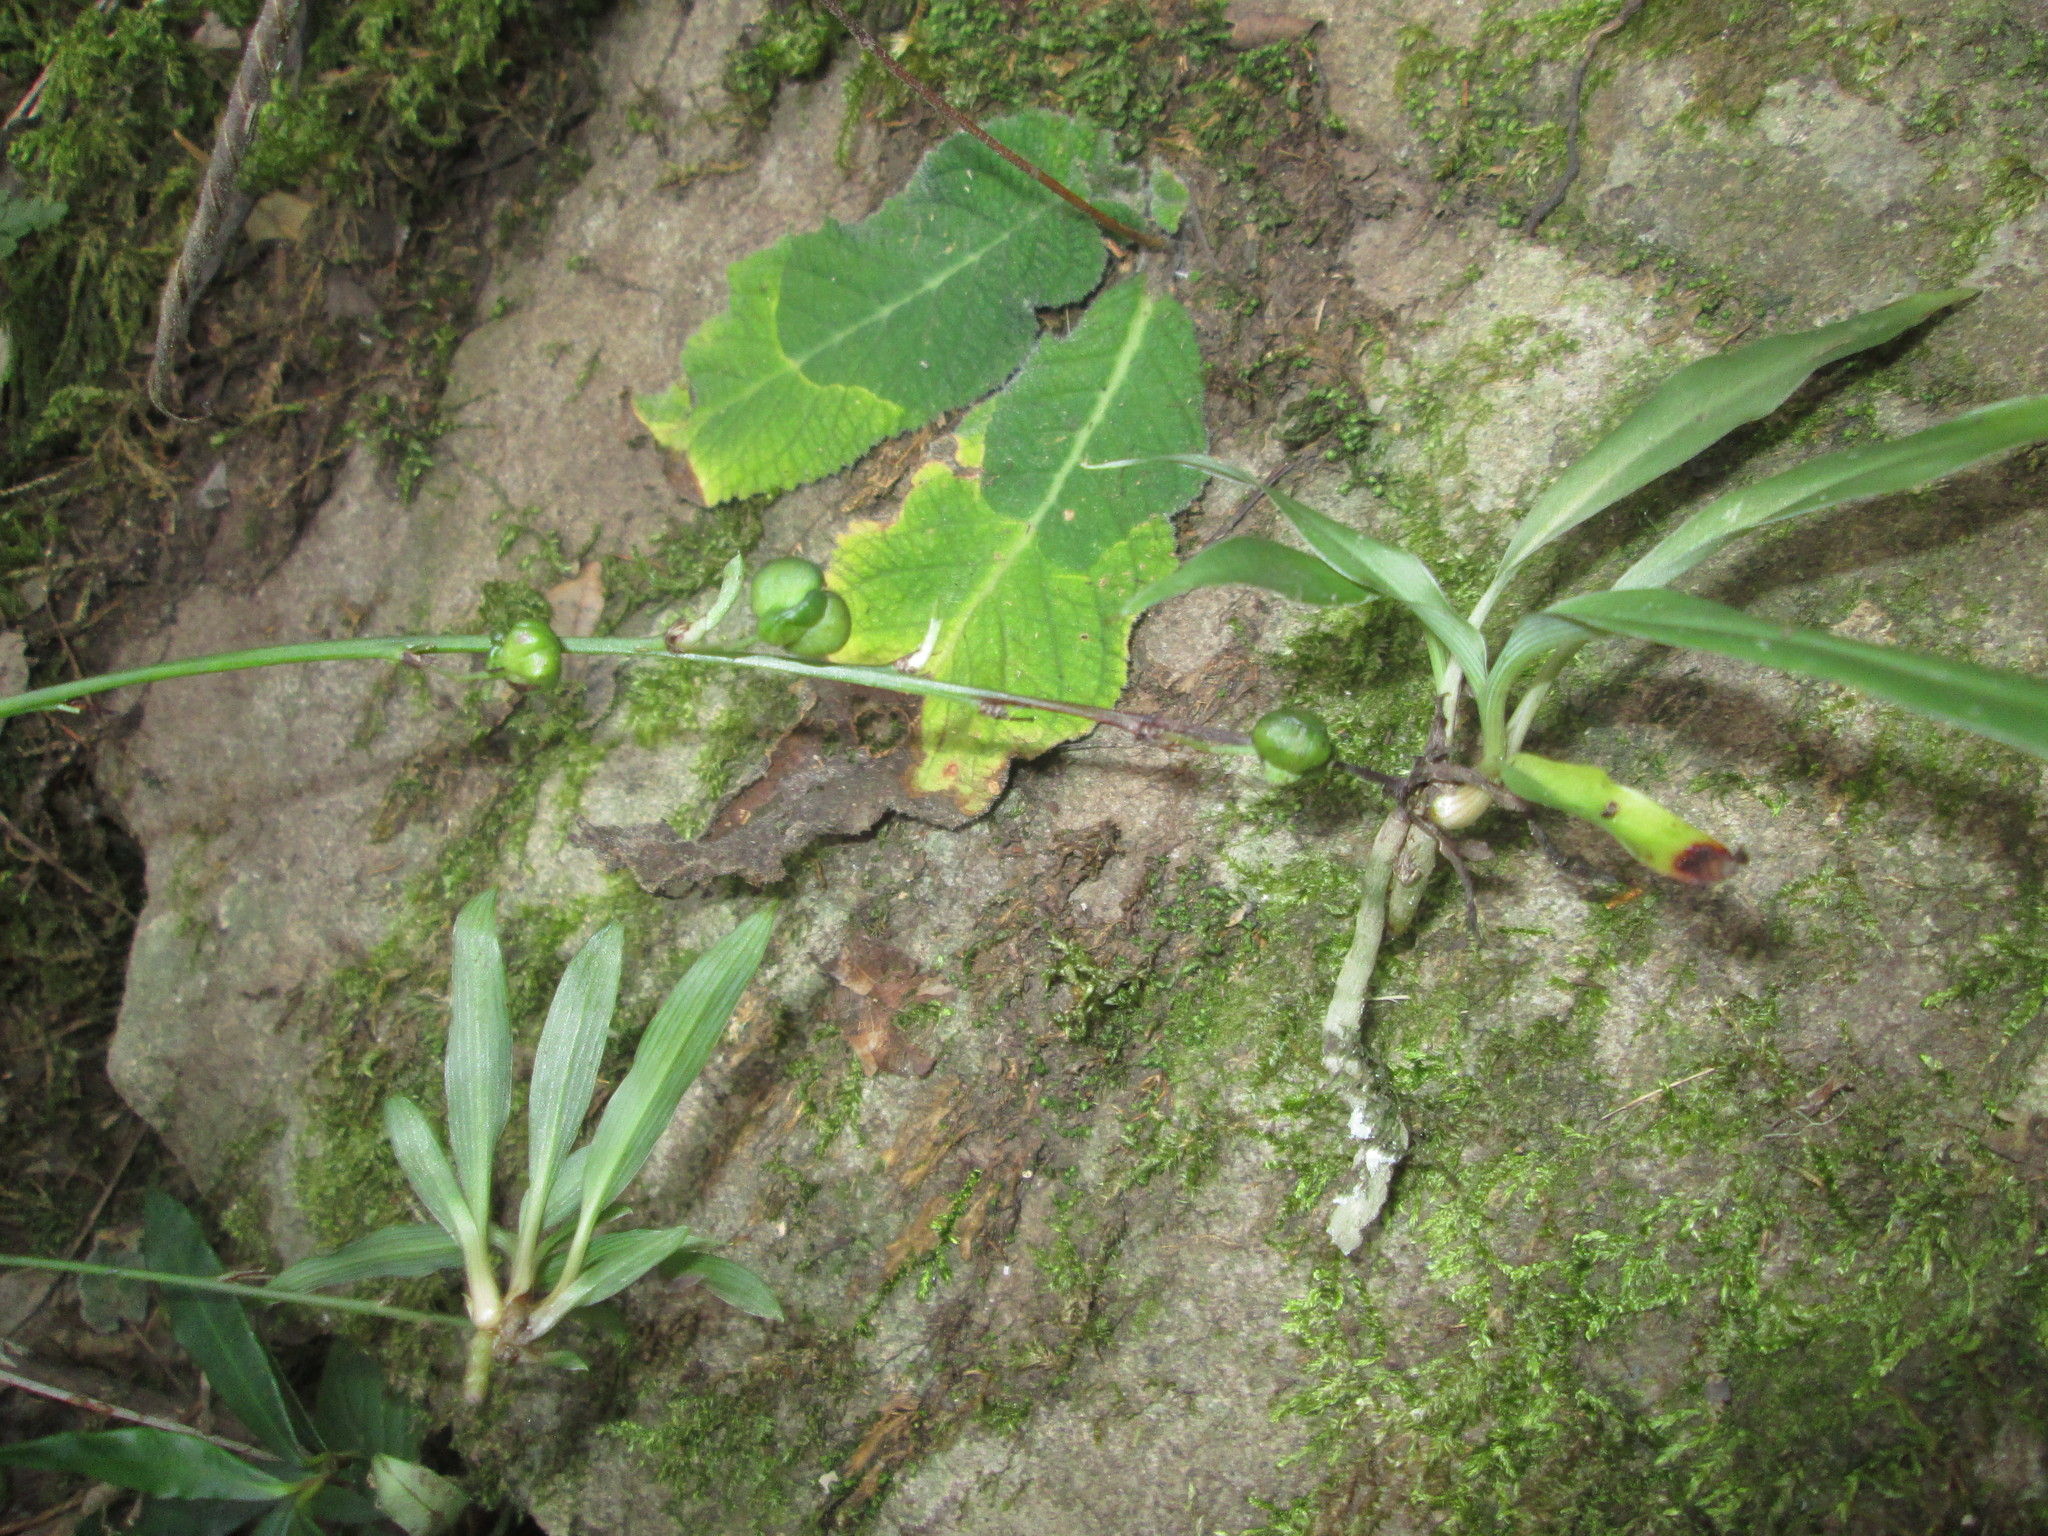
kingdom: Plantae
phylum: Tracheophyta
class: Liliopsida
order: Asparagales
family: Asparagaceae
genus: Chlorophytum
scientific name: Chlorophytum comosum
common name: Spider plant
